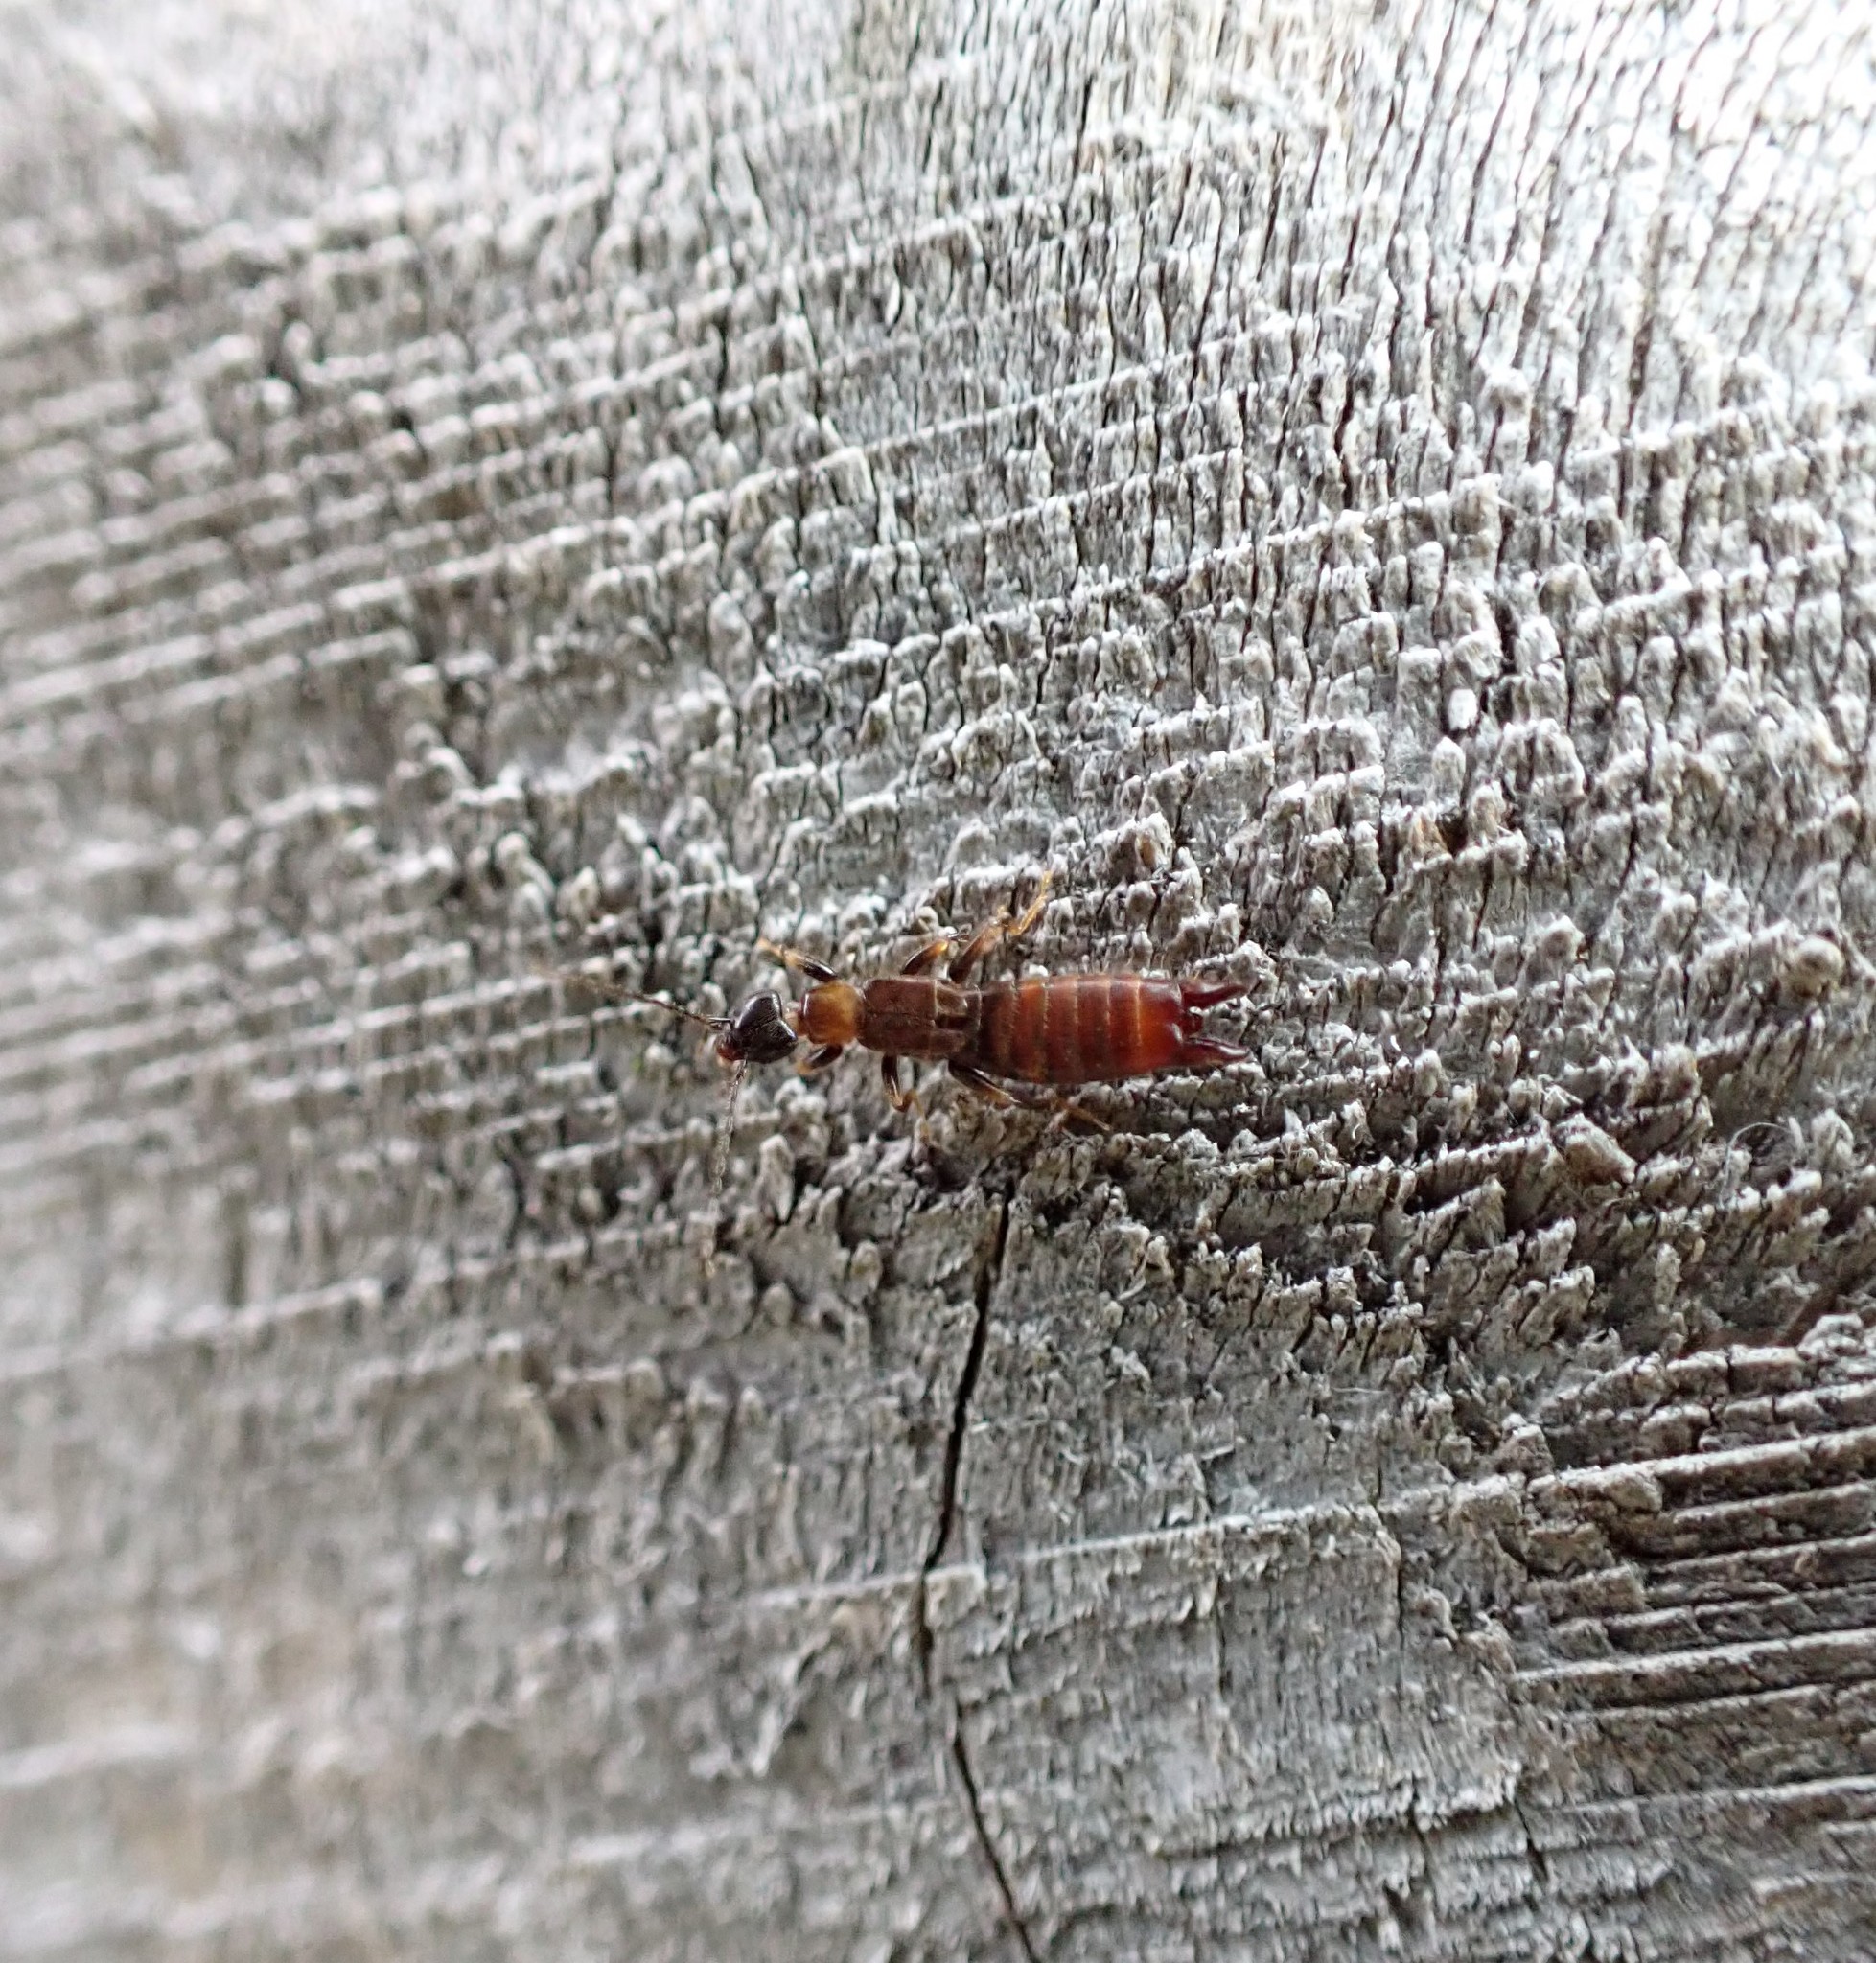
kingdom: Animalia
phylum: Arthropoda
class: Insecta
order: Dermaptera
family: Spongiphoridae
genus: Spirolabia
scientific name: Spirolabia kermadecensis
